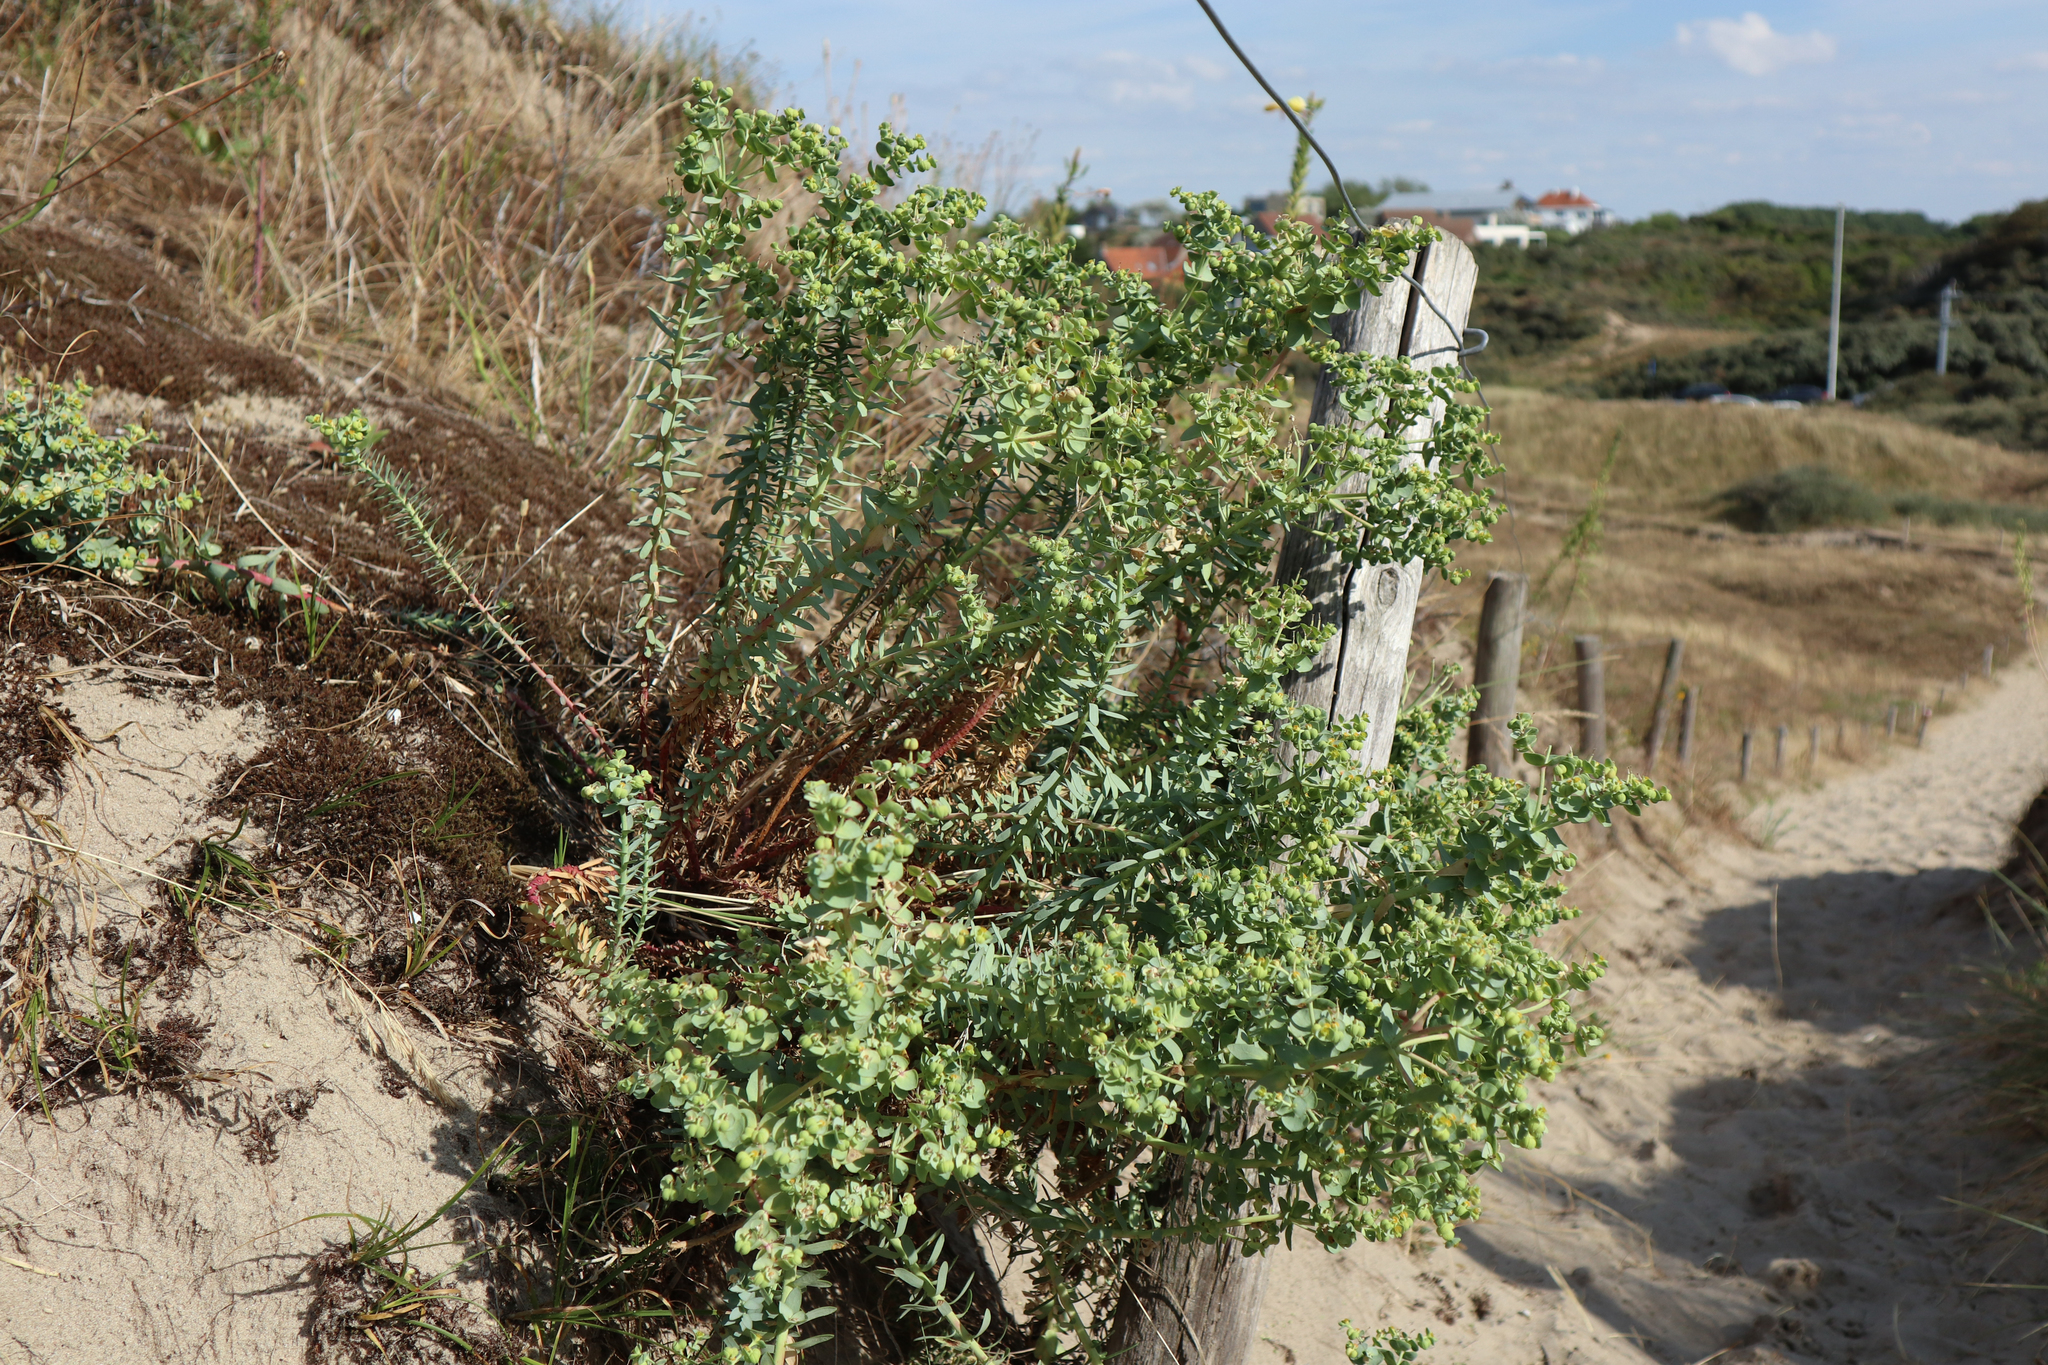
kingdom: Plantae
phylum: Tracheophyta
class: Magnoliopsida
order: Malpighiales
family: Euphorbiaceae
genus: Euphorbia
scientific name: Euphorbia paralias
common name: Sea spurge
